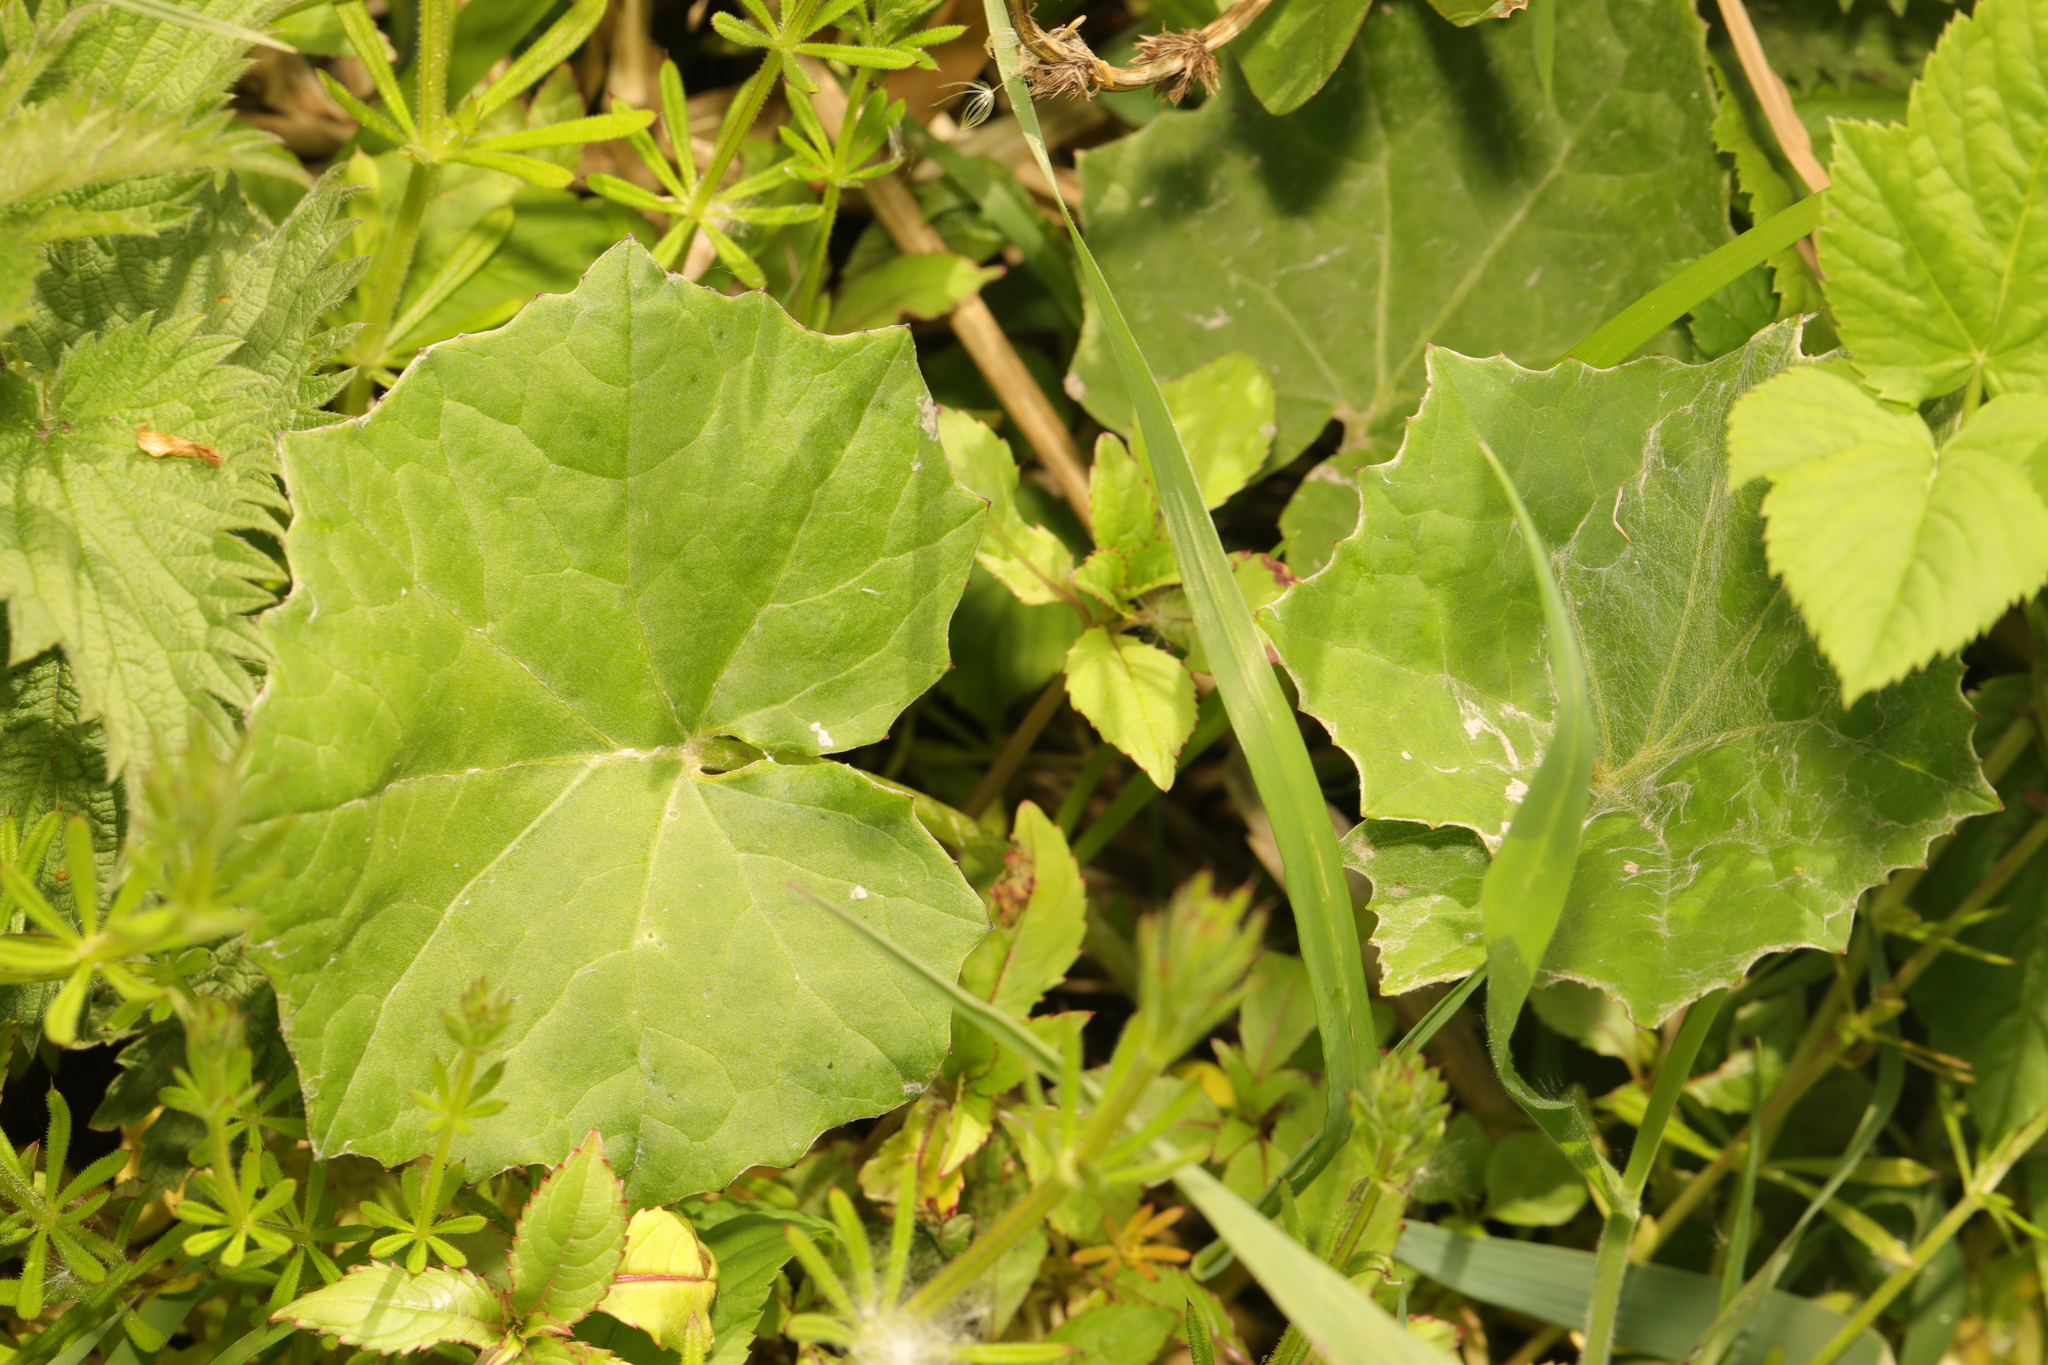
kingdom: Plantae
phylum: Tracheophyta
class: Magnoliopsida
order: Asterales
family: Asteraceae
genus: Tussilago
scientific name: Tussilago farfara
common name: Coltsfoot
